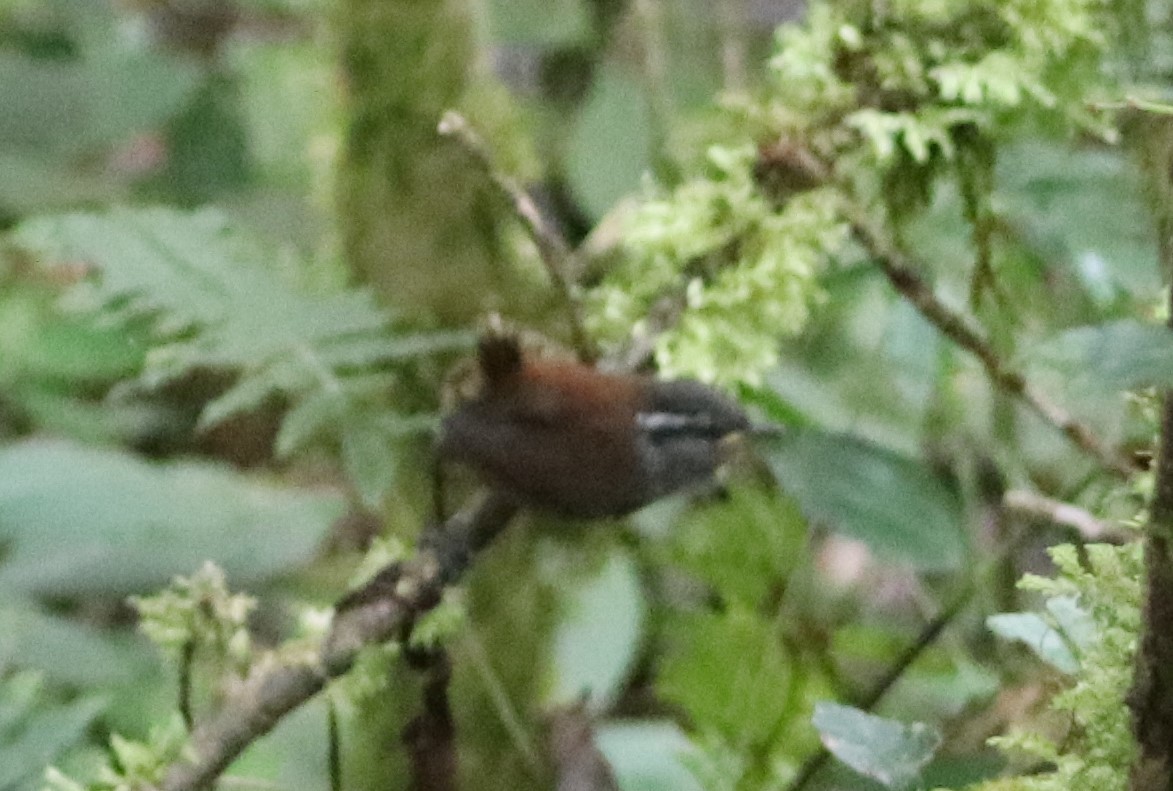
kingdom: Animalia
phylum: Chordata
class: Aves
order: Passeriformes
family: Troglodytidae
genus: Henicorhina
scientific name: Henicorhina leucophrys
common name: Gray-breasted wood-wren
